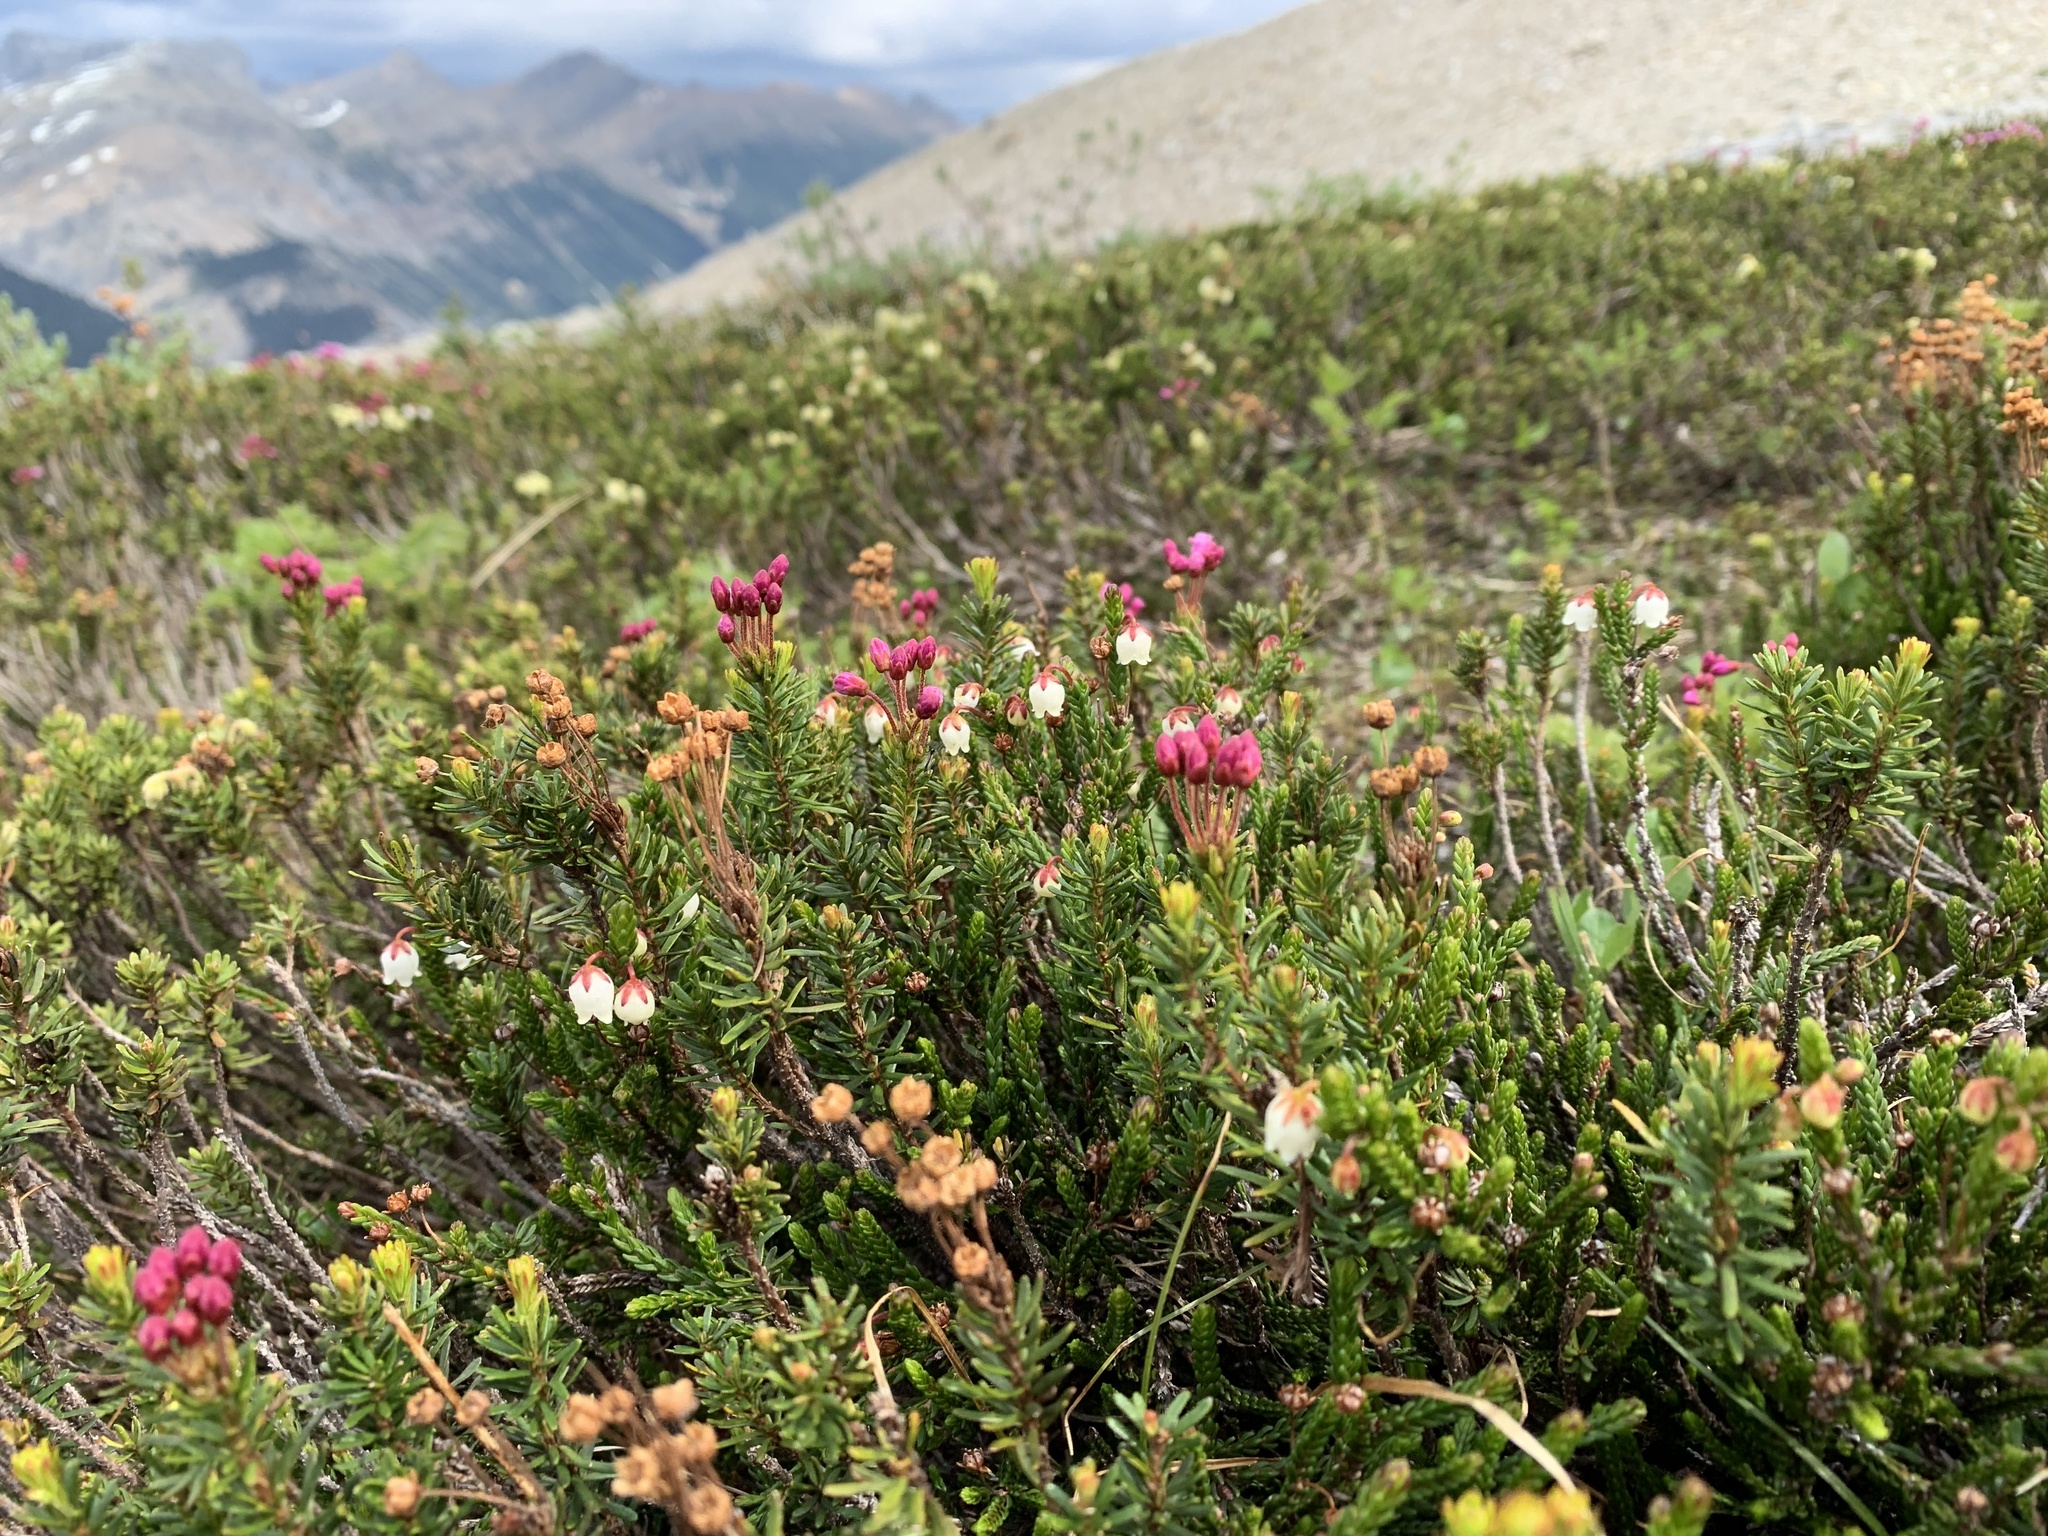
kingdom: Plantae
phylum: Tracheophyta
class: Magnoliopsida
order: Ericales
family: Ericaceae
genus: Phyllodoce
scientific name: Phyllodoce empetriformis
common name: Pink mountain heather
